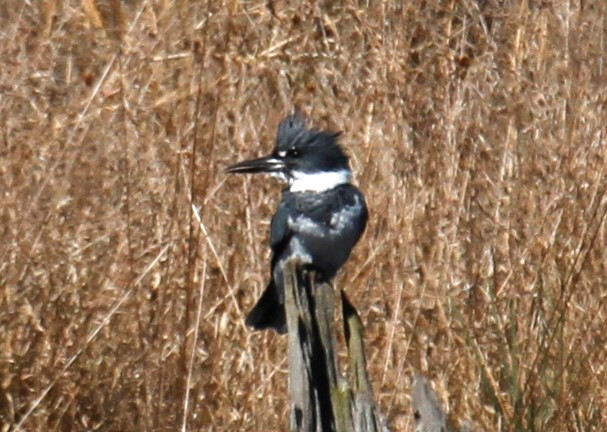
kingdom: Animalia
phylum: Chordata
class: Aves
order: Coraciiformes
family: Alcedinidae
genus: Megaceryle
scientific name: Megaceryle alcyon
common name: Belted kingfisher
